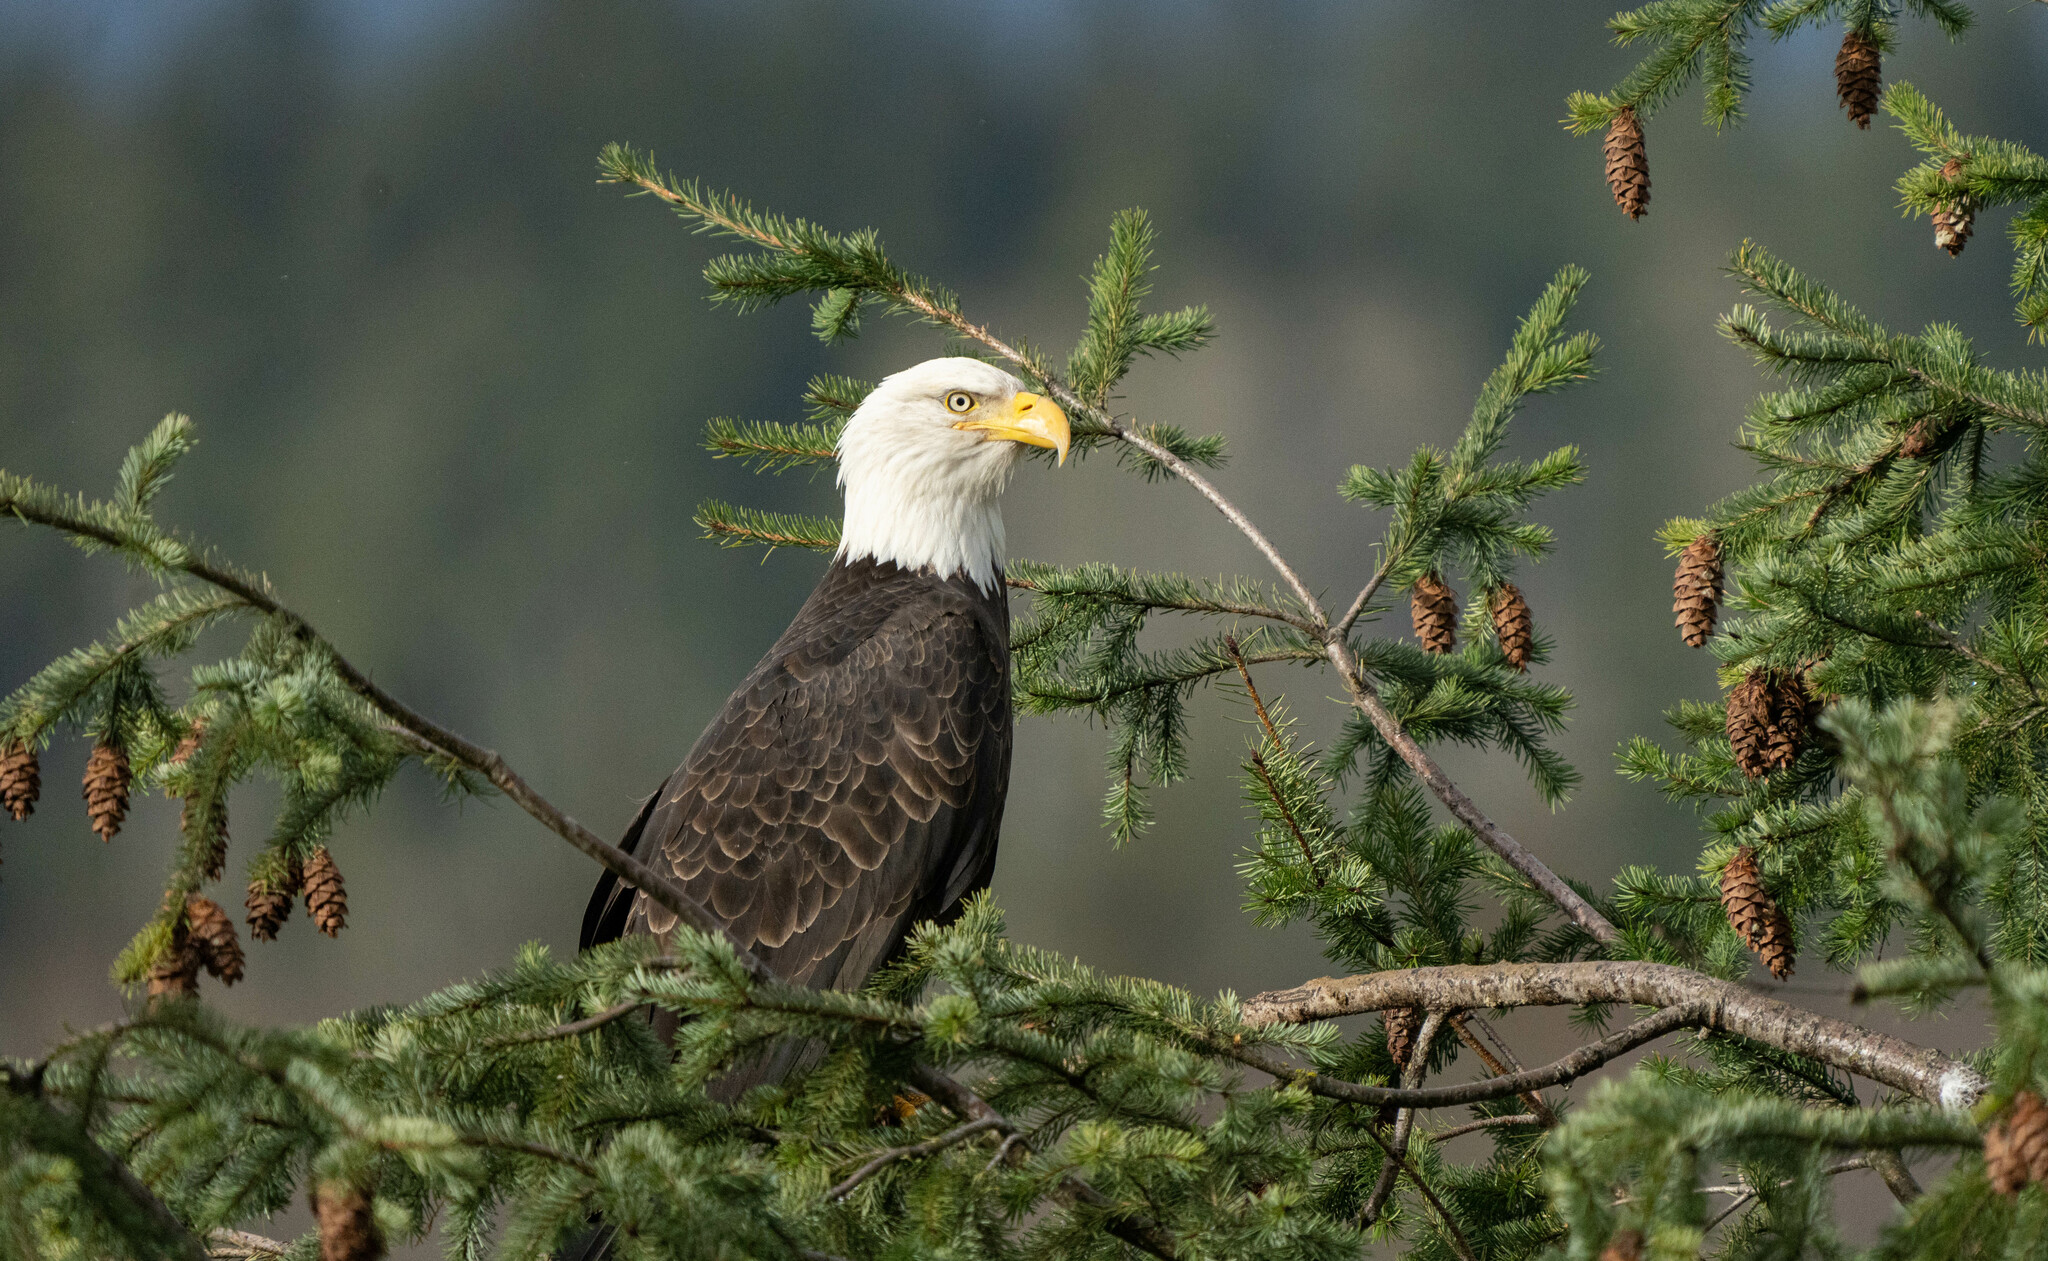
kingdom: Animalia
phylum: Chordata
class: Aves
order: Accipitriformes
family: Accipitridae
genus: Haliaeetus
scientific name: Haliaeetus leucocephalus
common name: Bald eagle
